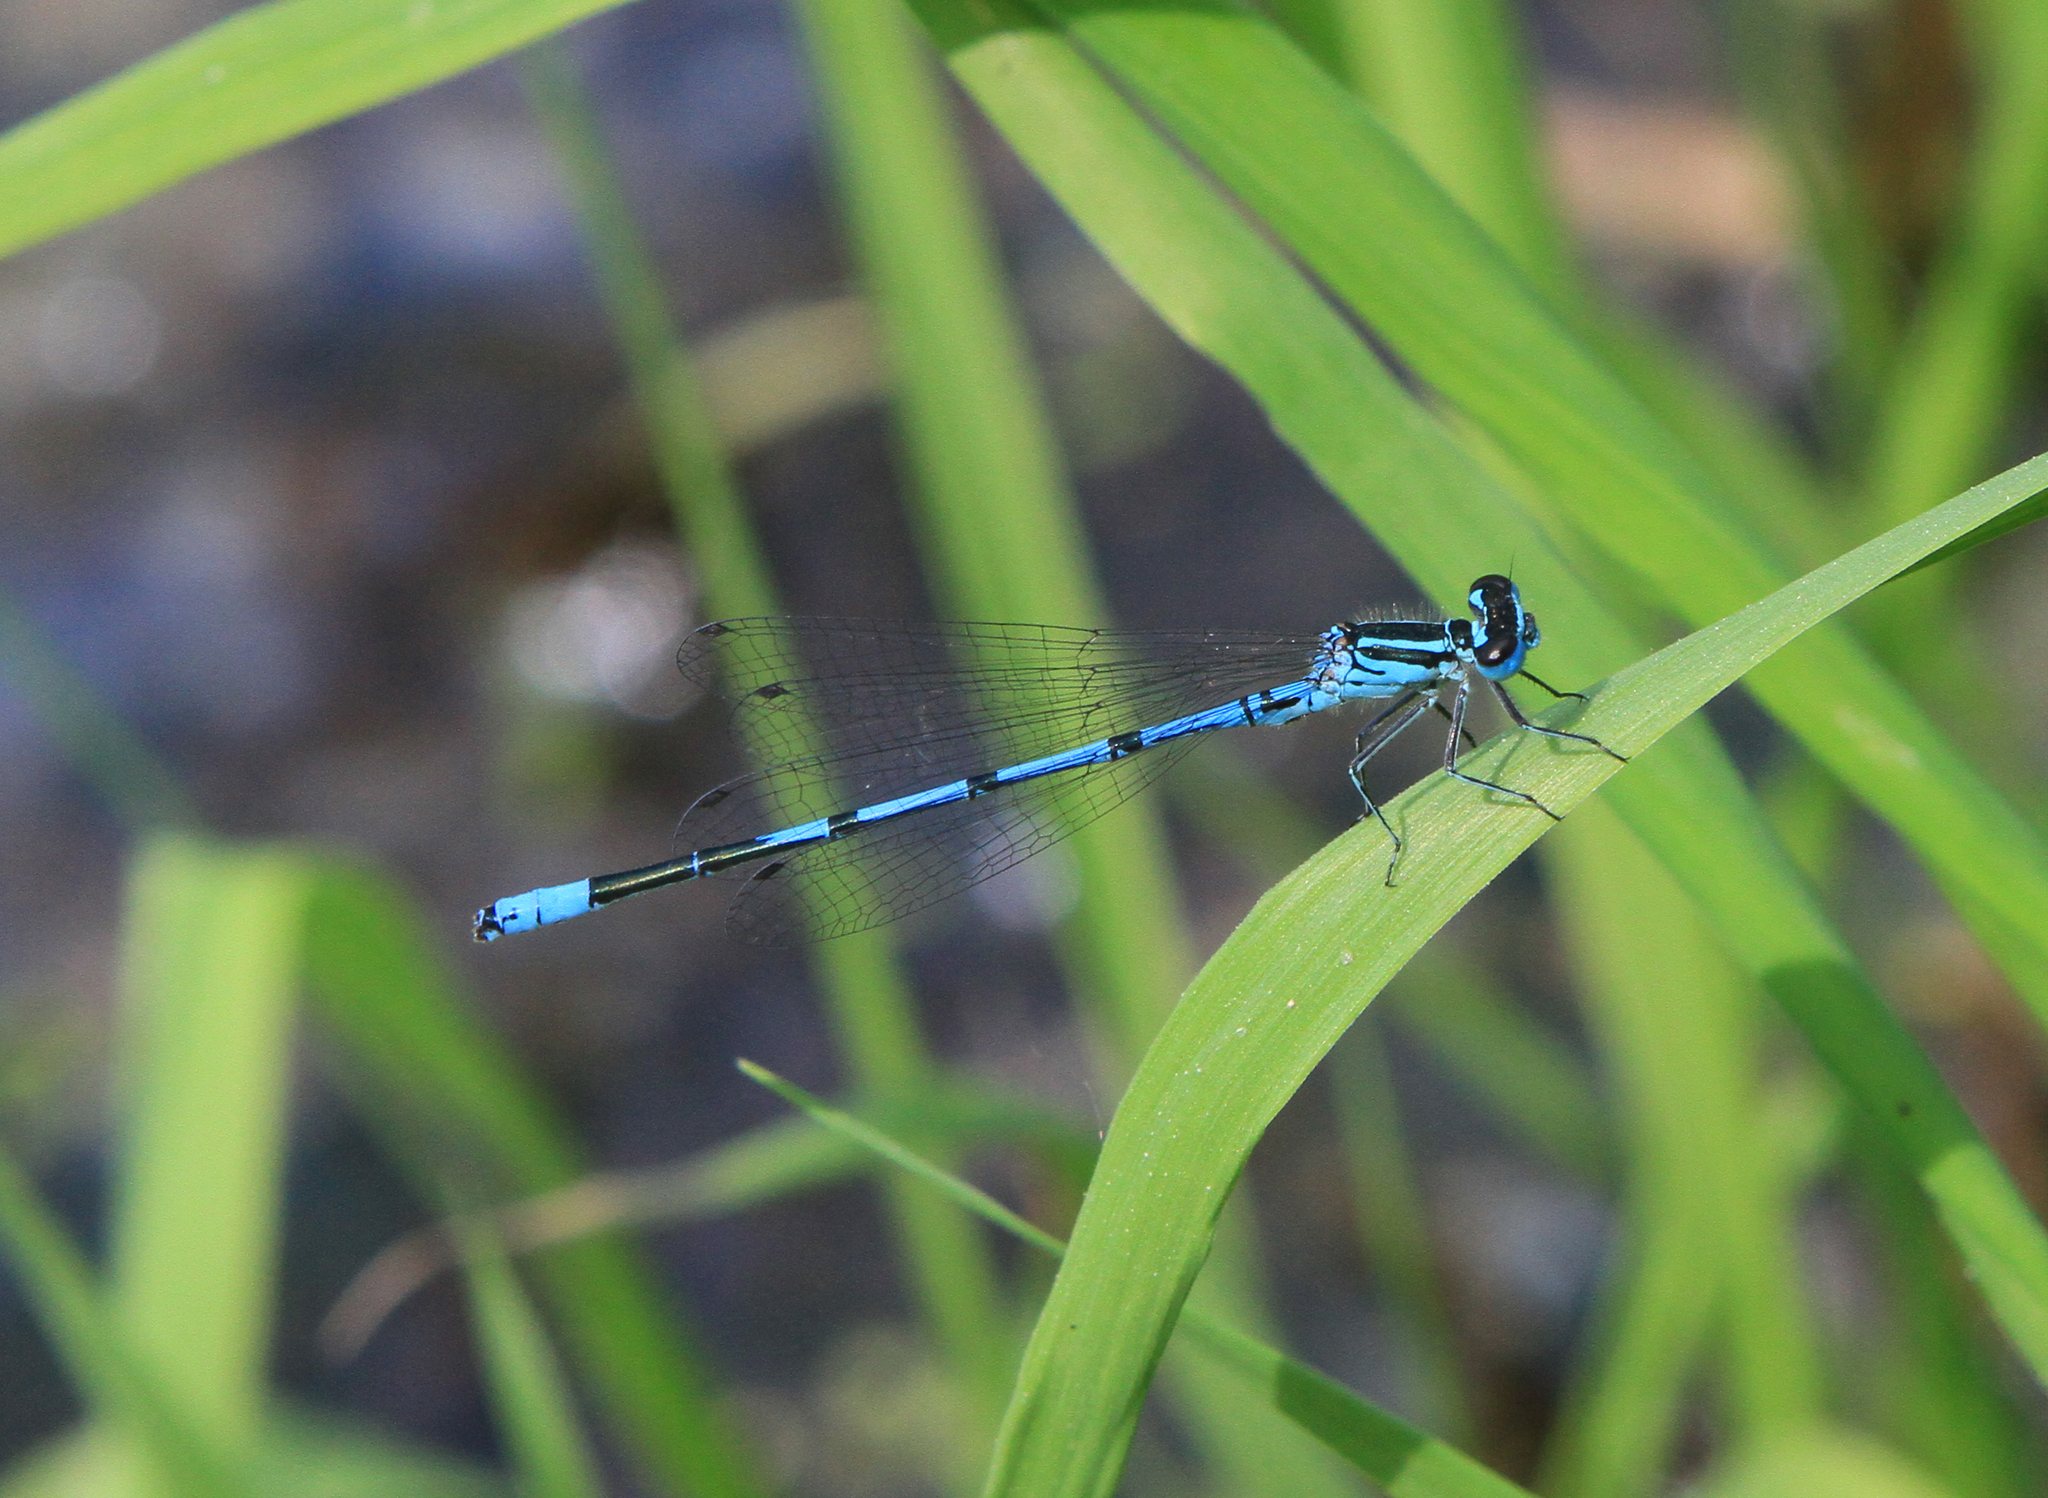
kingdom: Animalia
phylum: Arthropoda
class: Insecta
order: Odonata
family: Coenagrionidae
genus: Coenagrion
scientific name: Coenagrion puella
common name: Azure damselfly
